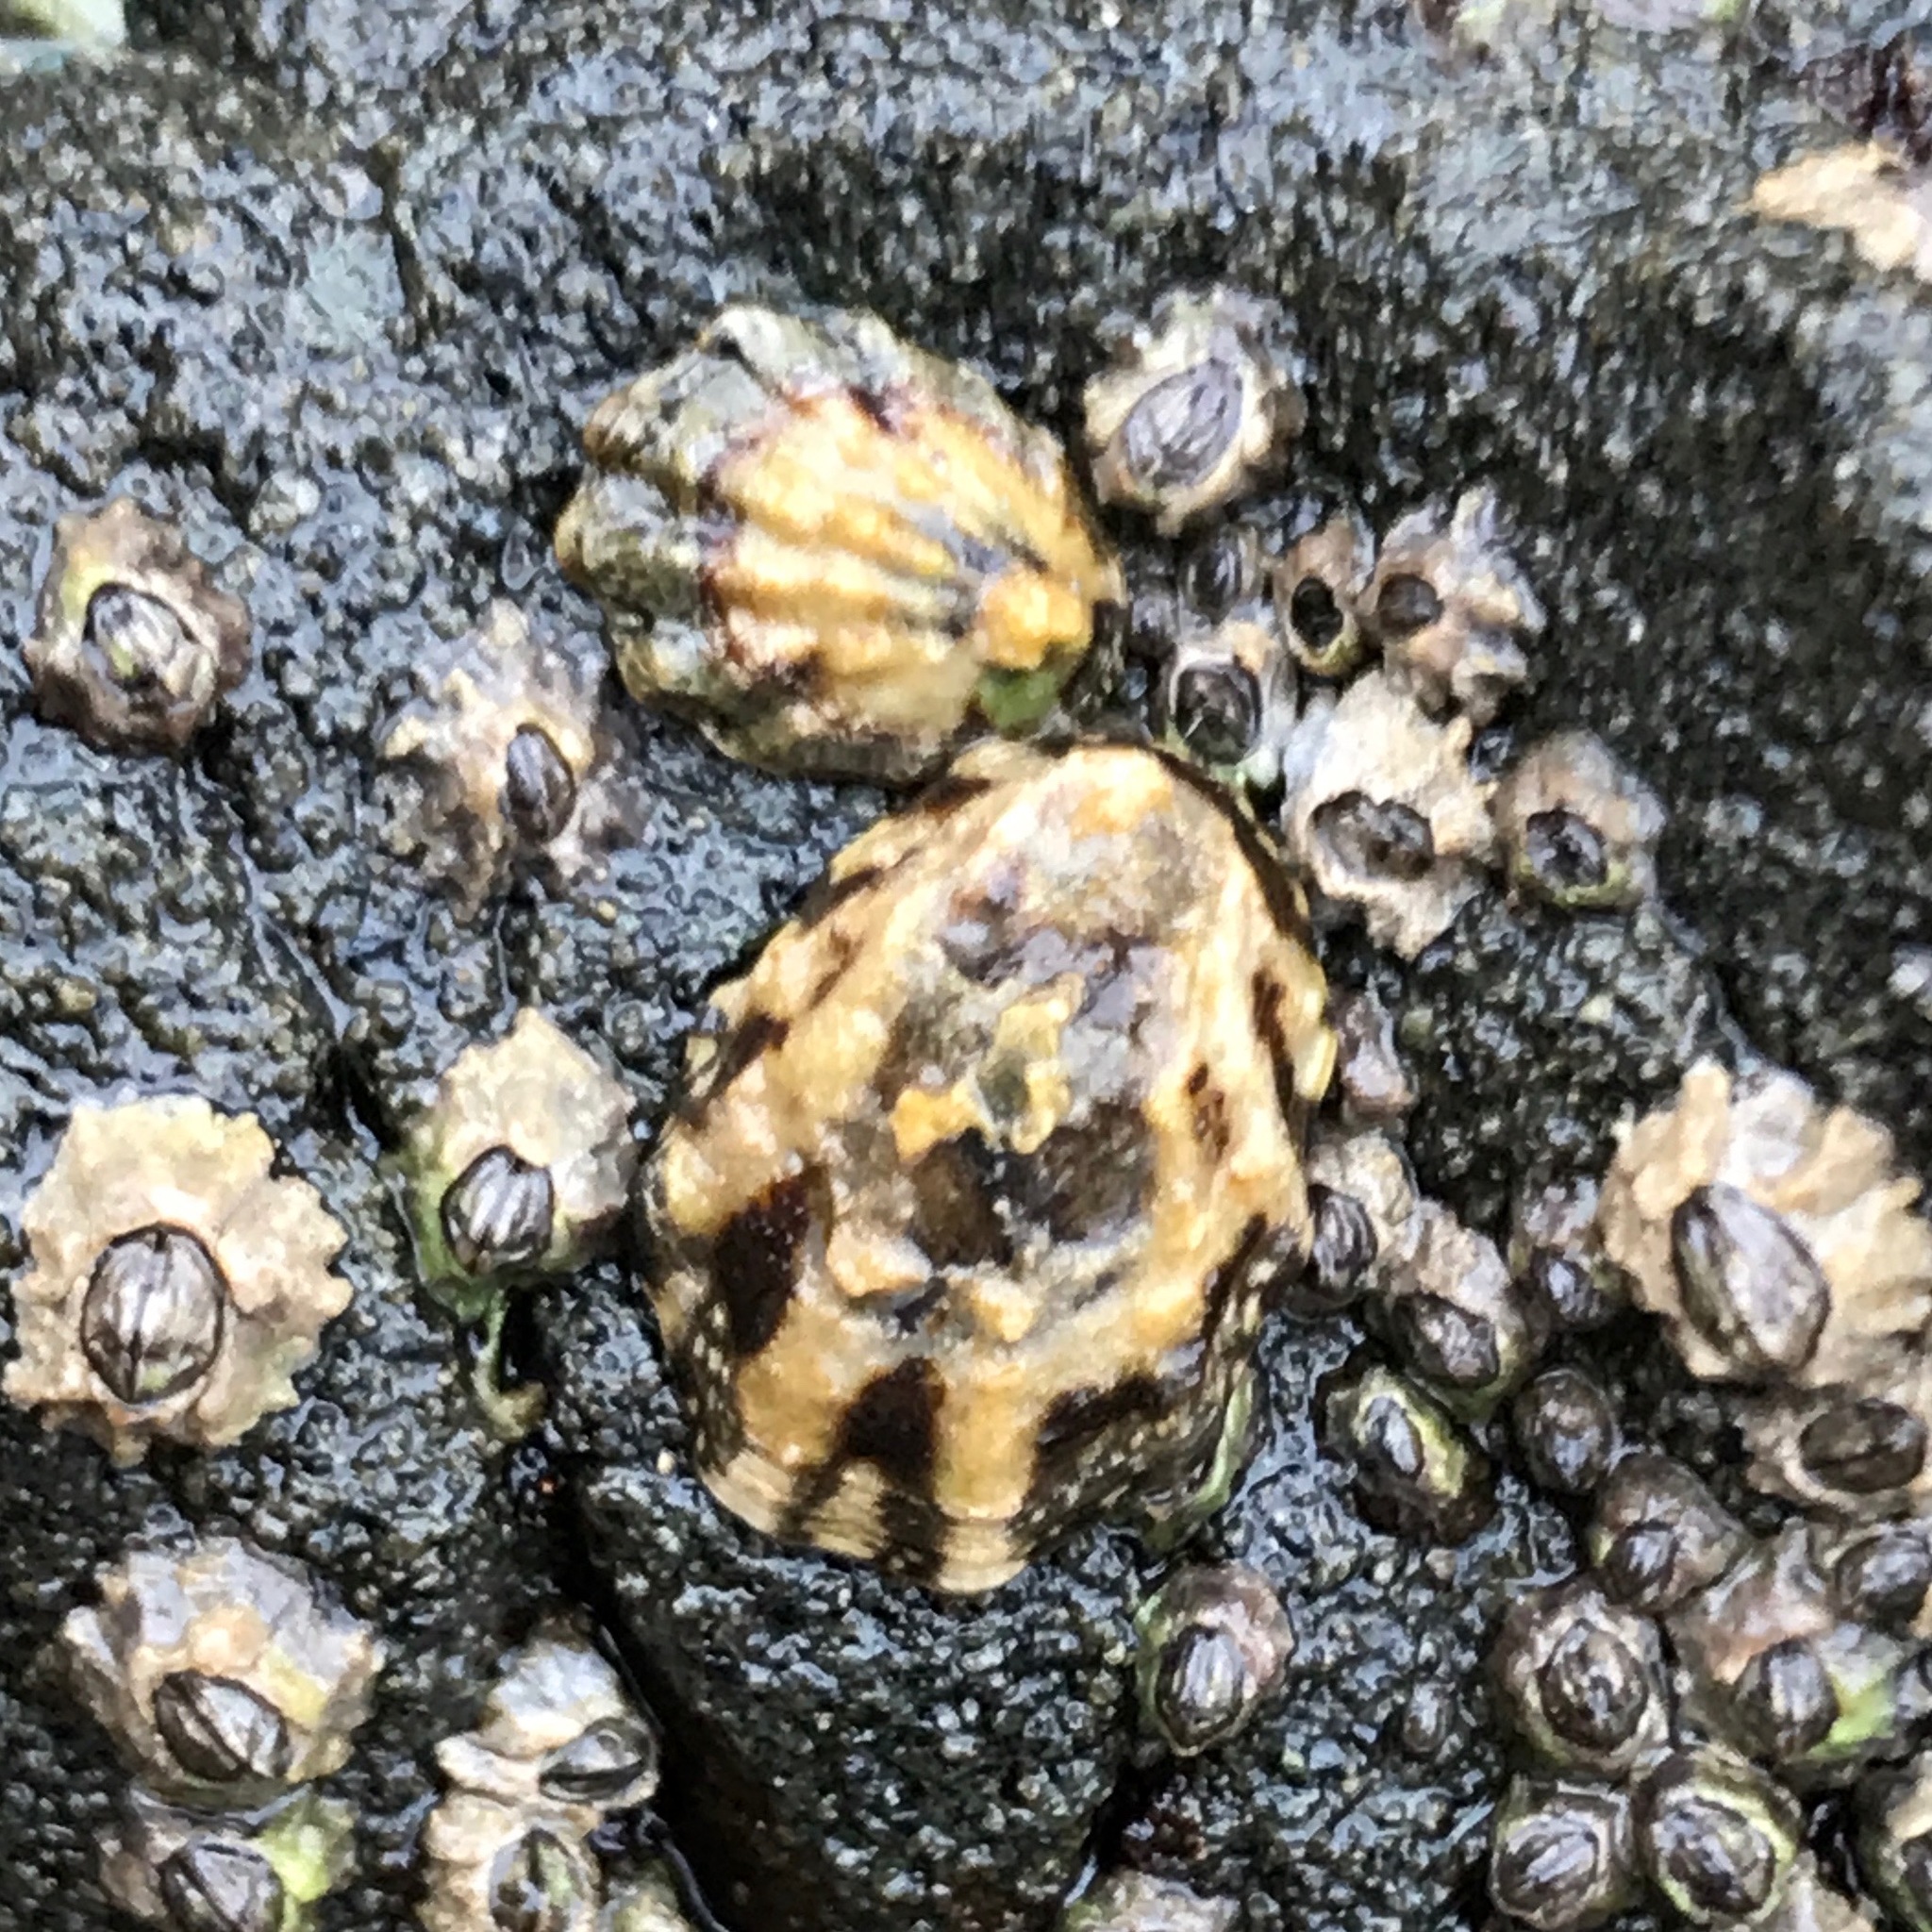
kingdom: Animalia
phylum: Mollusca
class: Gastropoda
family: Lottiidae
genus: Lottia
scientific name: Lottia digitalis
